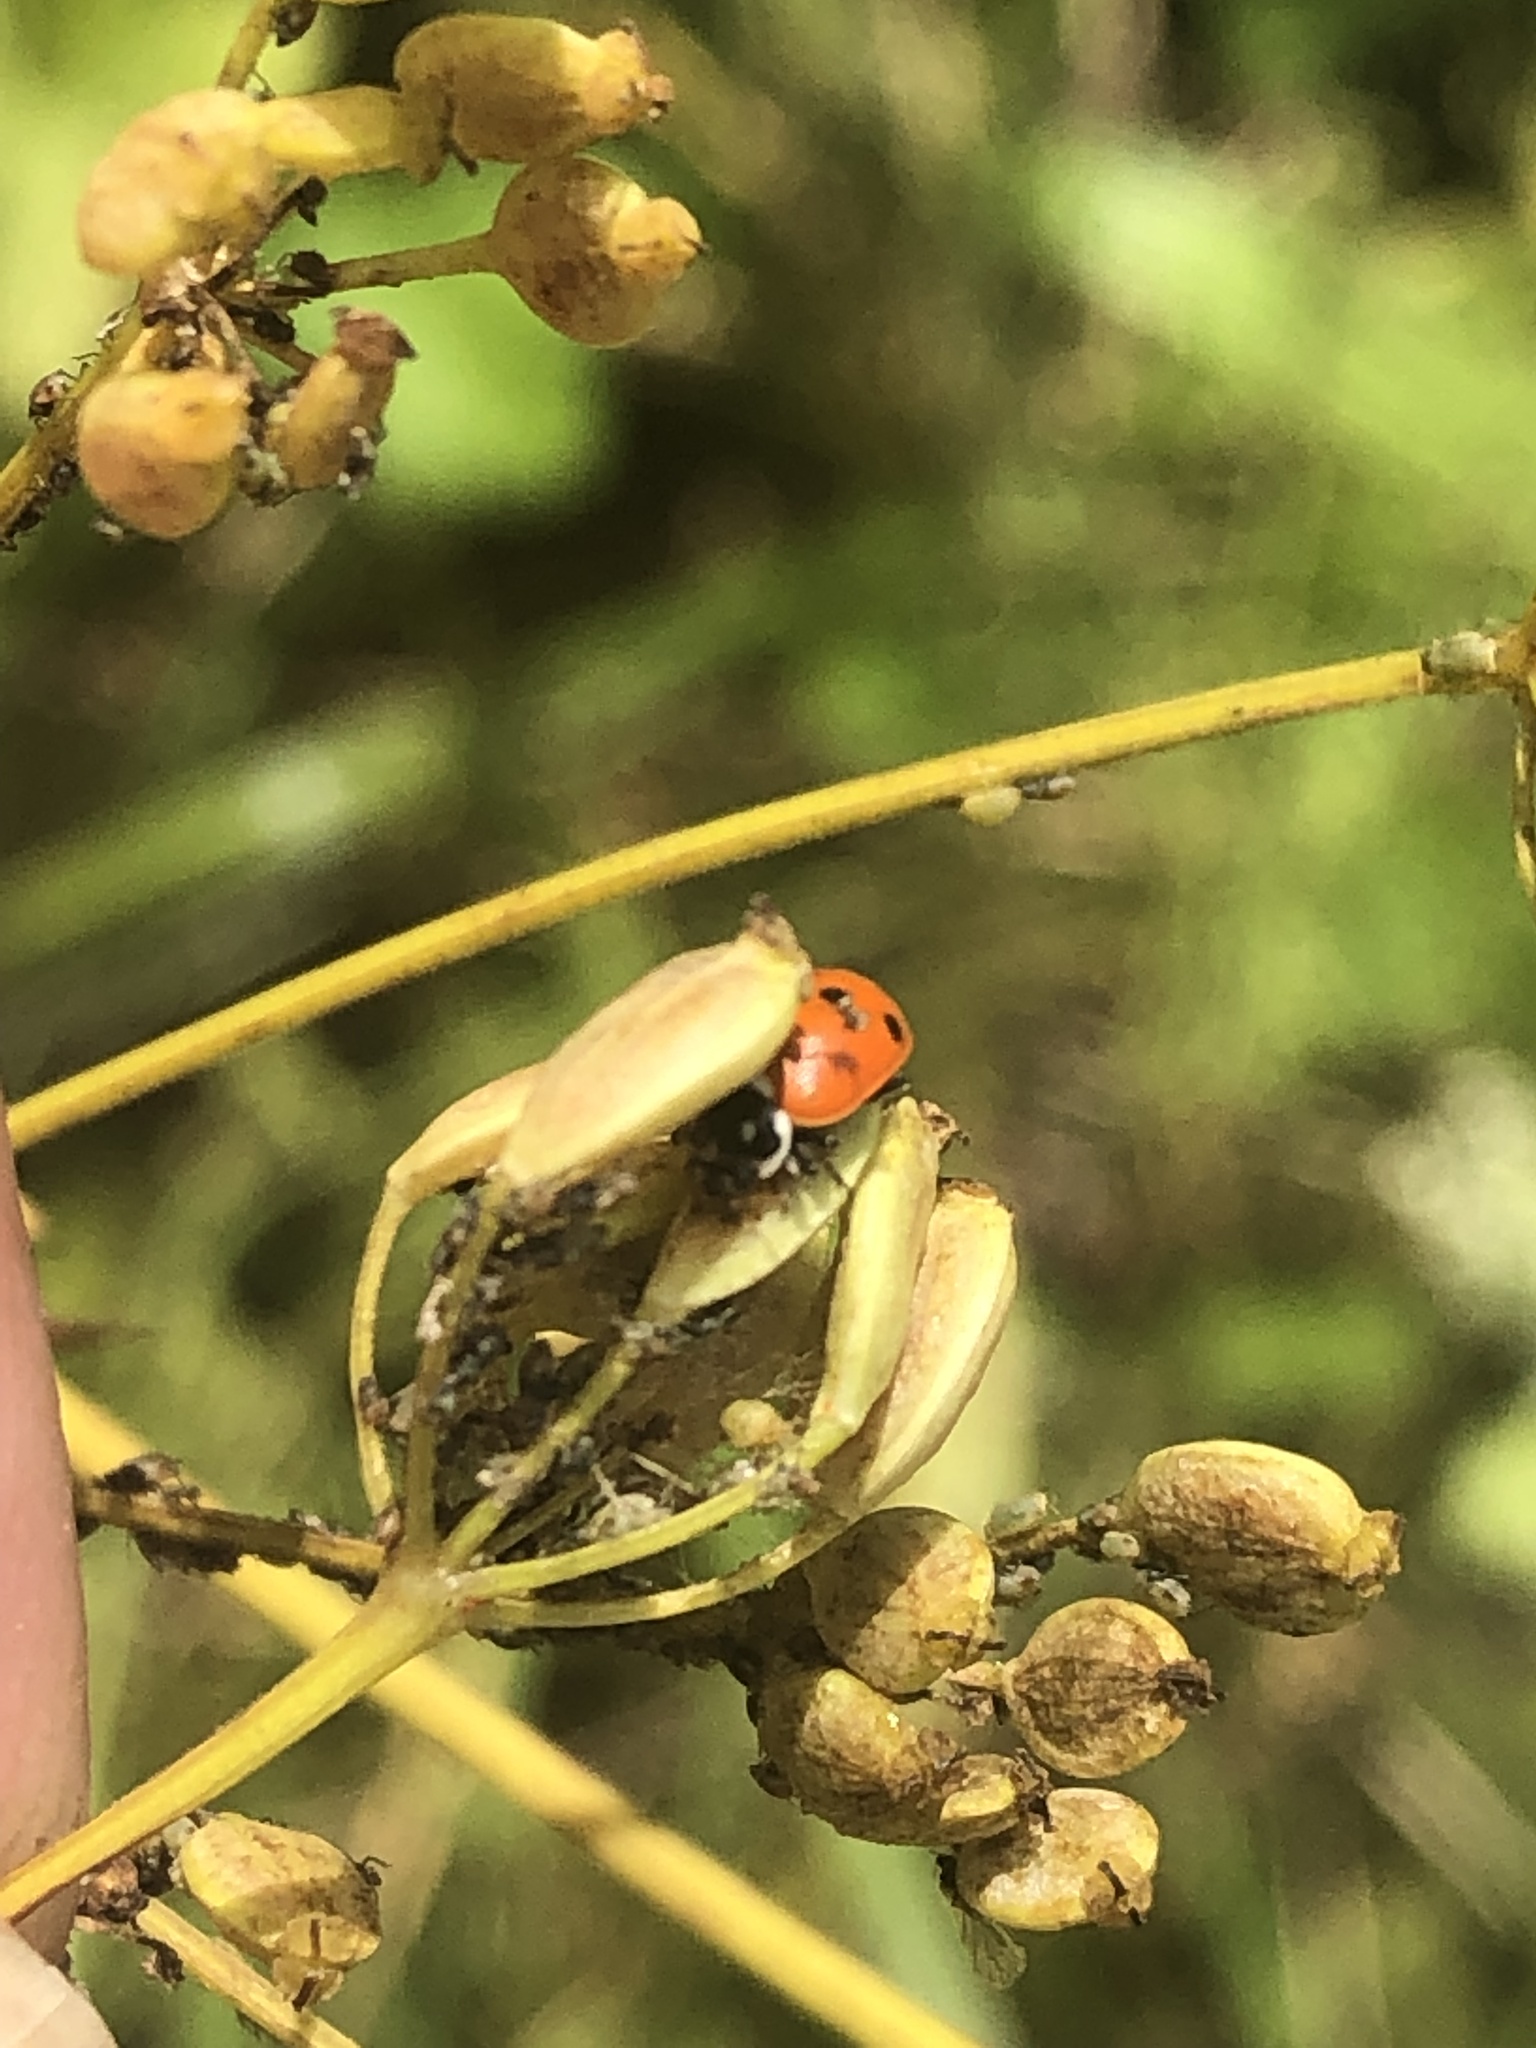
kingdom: Animalia
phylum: Arthropoda
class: Insecta
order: Coleoptera
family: Coccinellidae
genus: Hippodamia
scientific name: Hippodamia variegata
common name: Ladybird beetle
